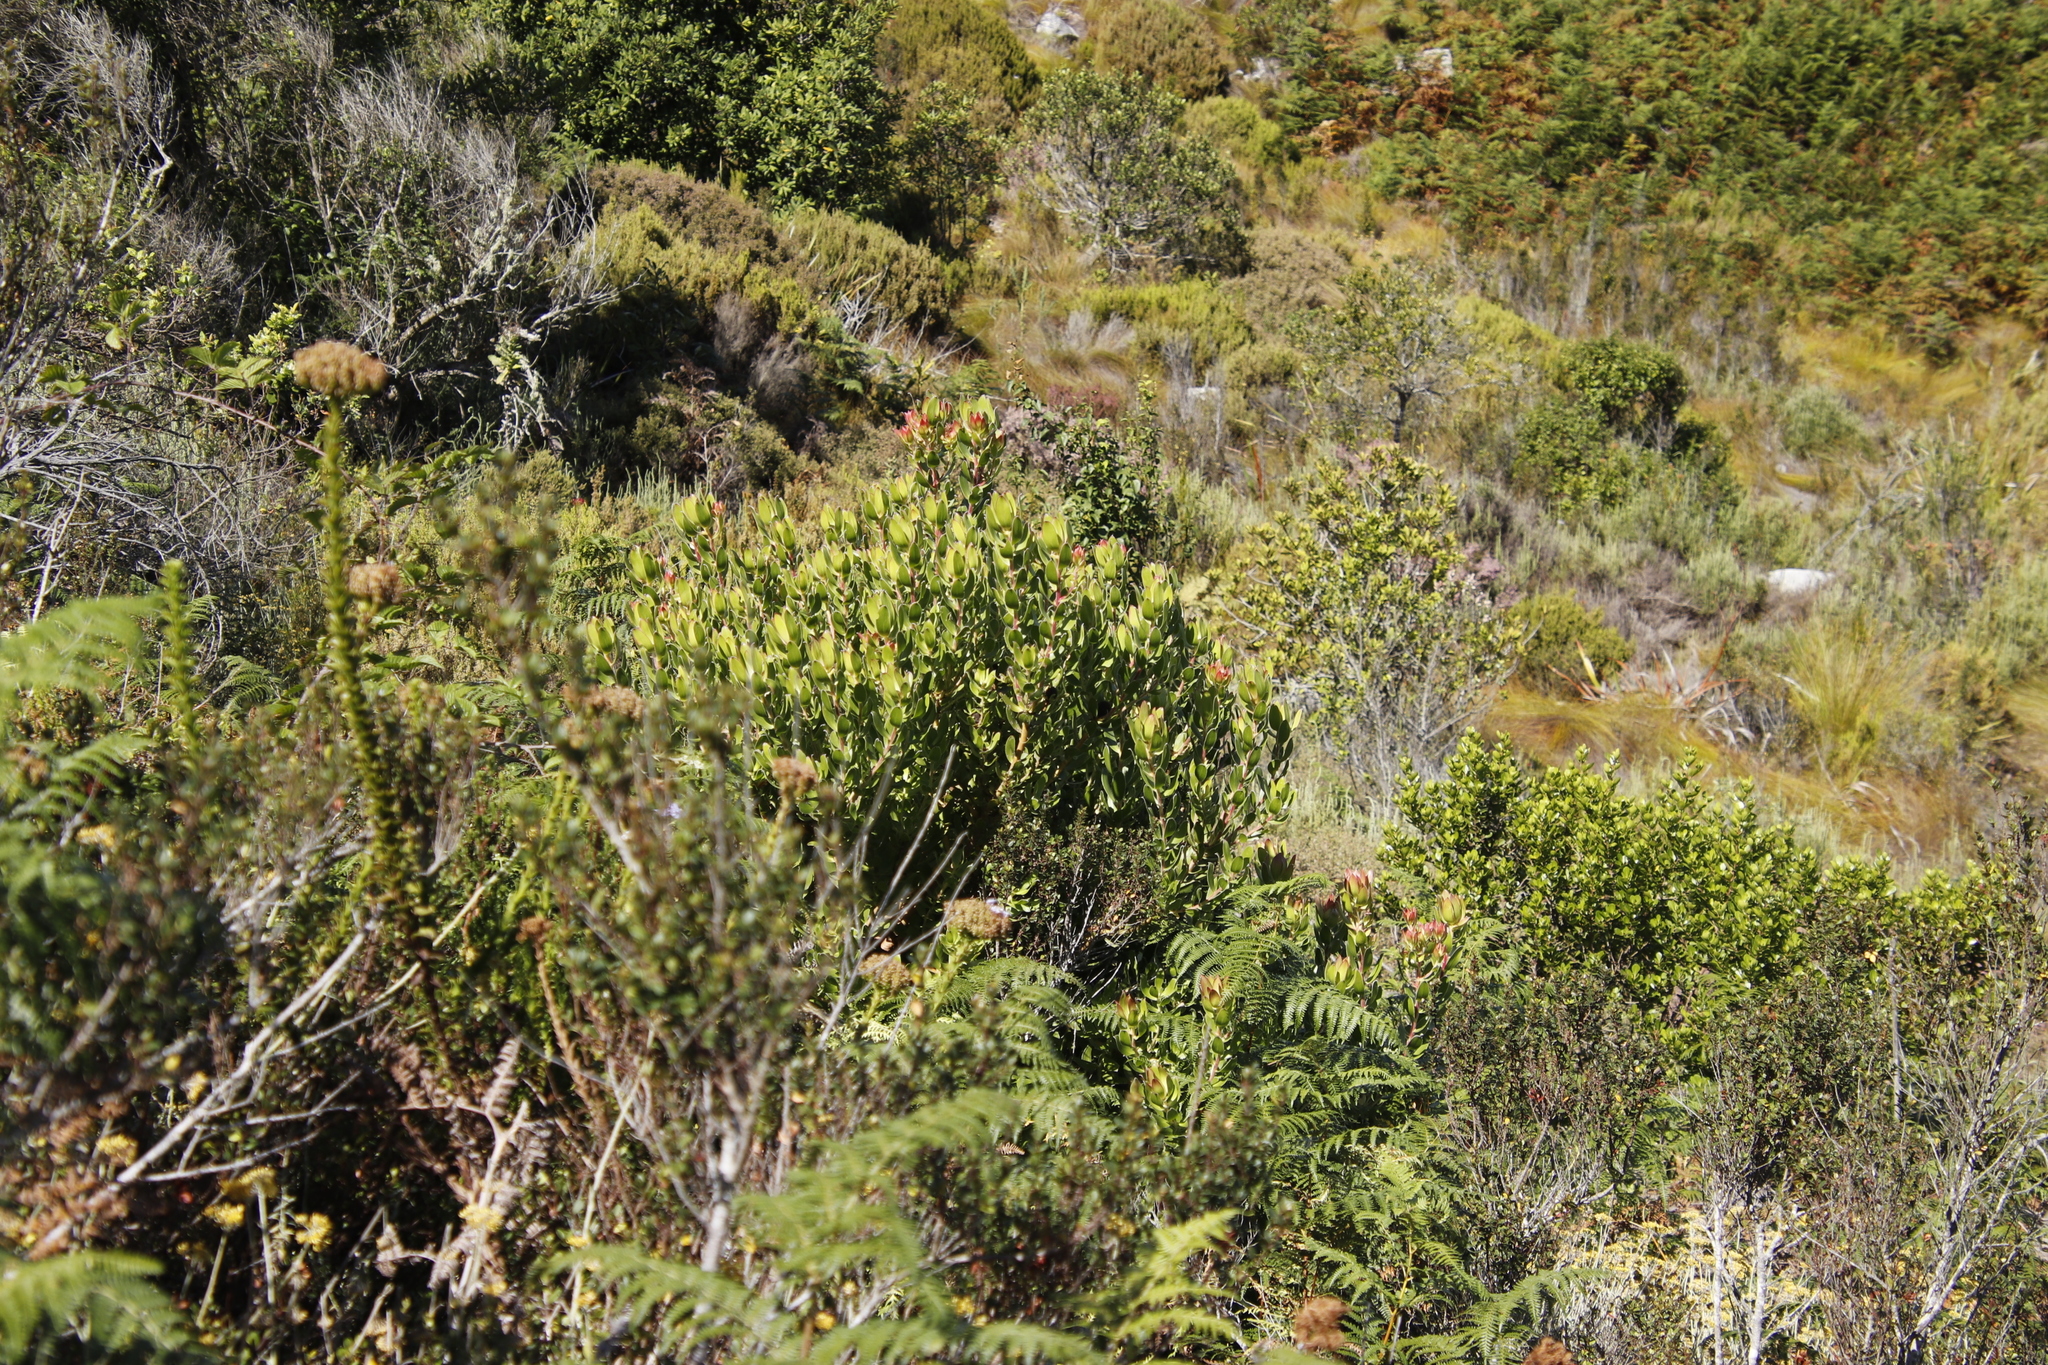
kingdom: Plantae
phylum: Tracheophyta
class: Magnoliopsida
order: Proteales
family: Proteaceae
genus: Leucadendron
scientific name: Leucadendron strobilinum
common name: Mountain rose
